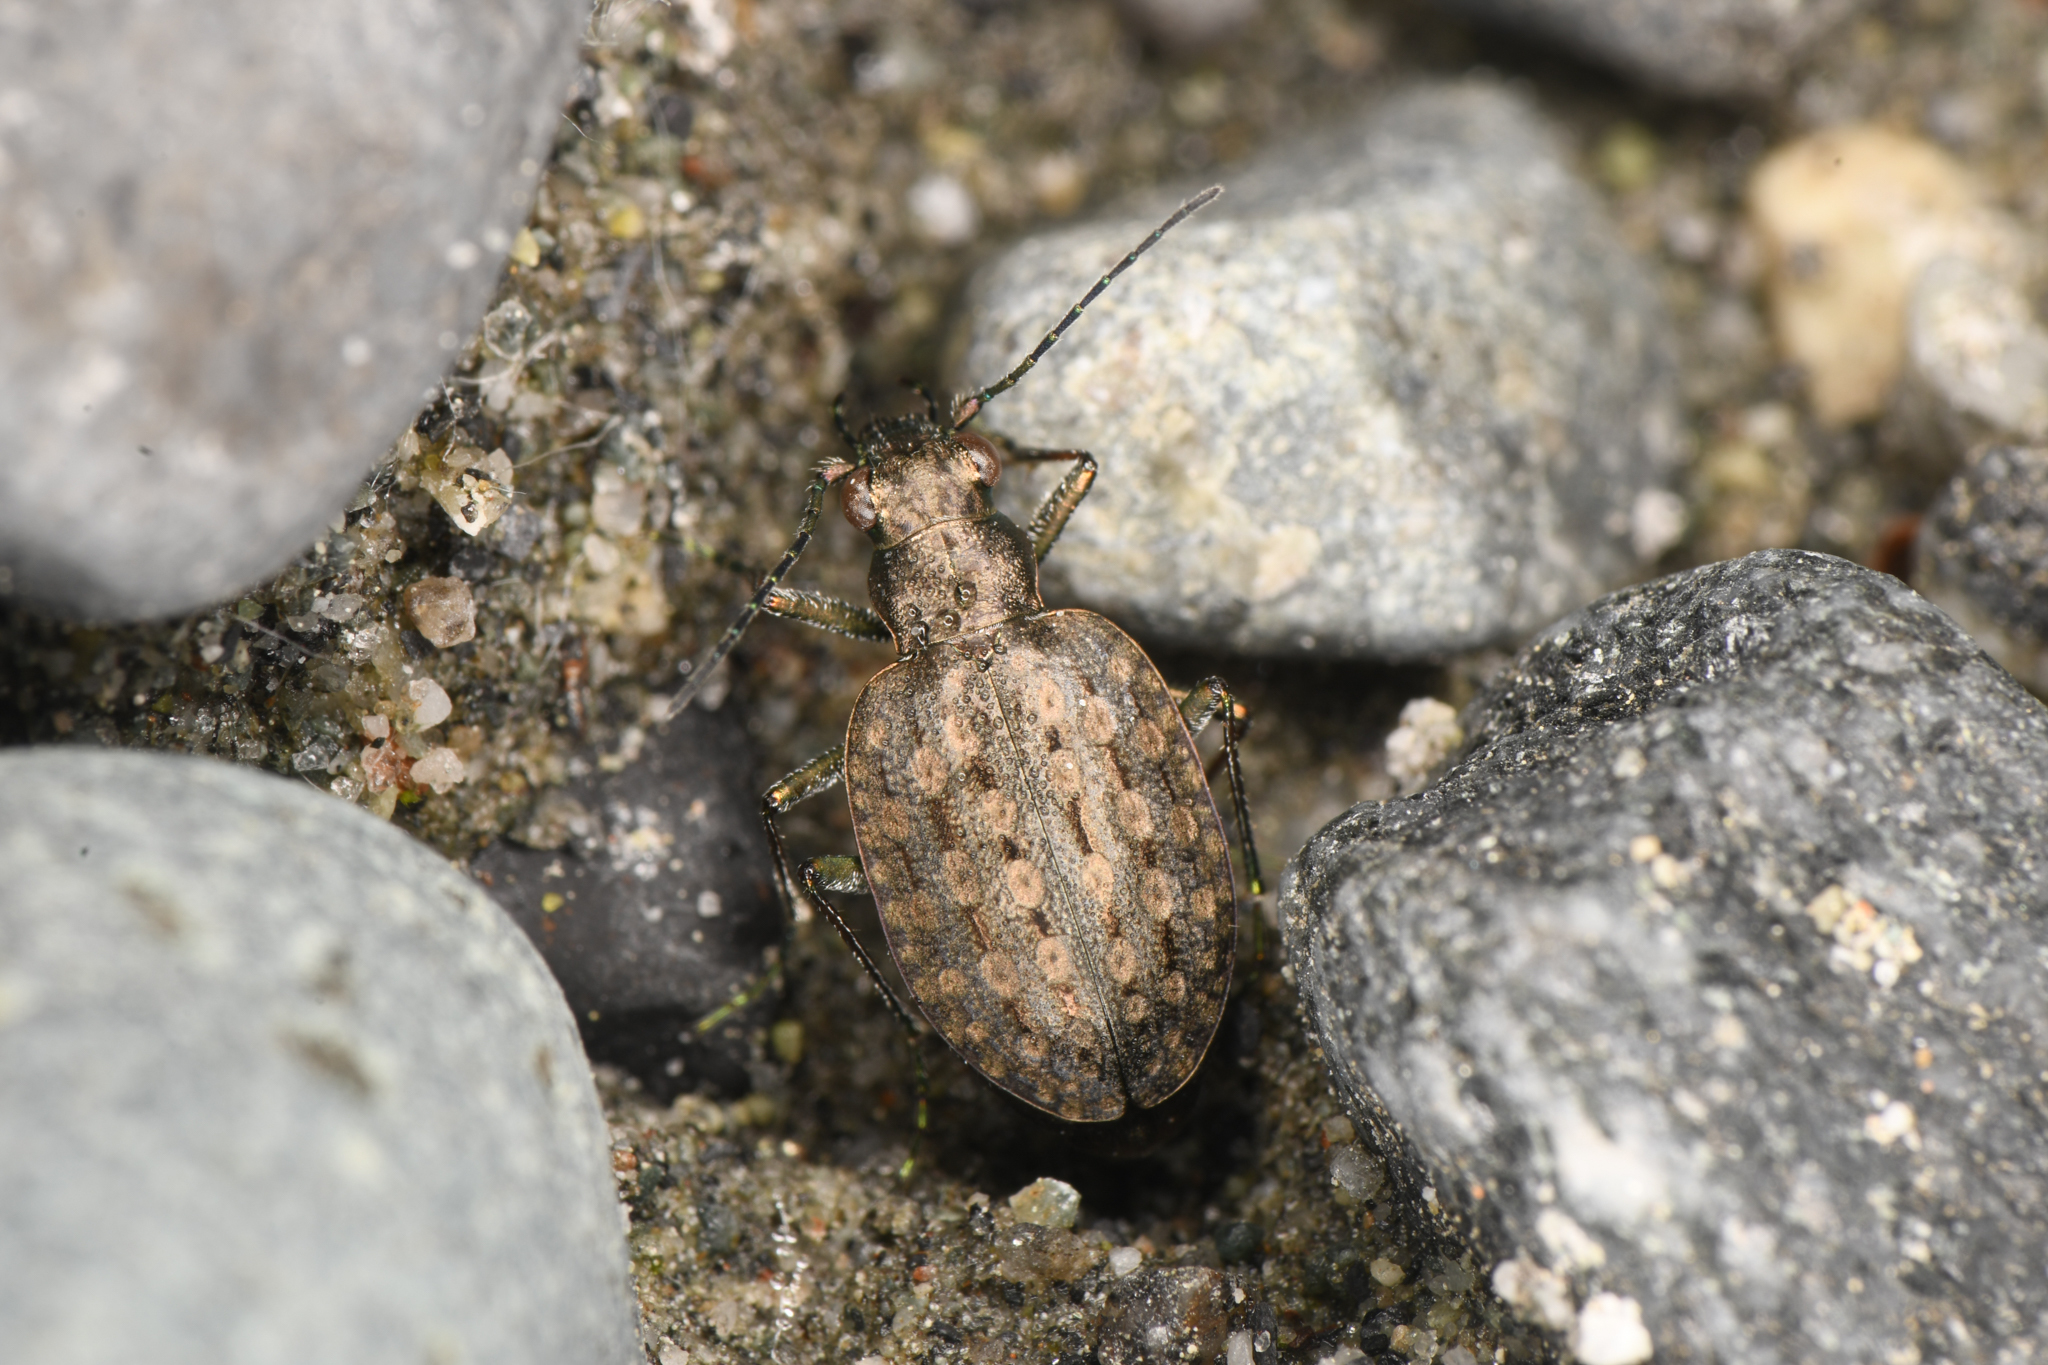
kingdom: Animalia
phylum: Arthropoda
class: Insecta
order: Coleoptera
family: Carabidae
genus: Opisthius
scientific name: Opisthius richardsoni
